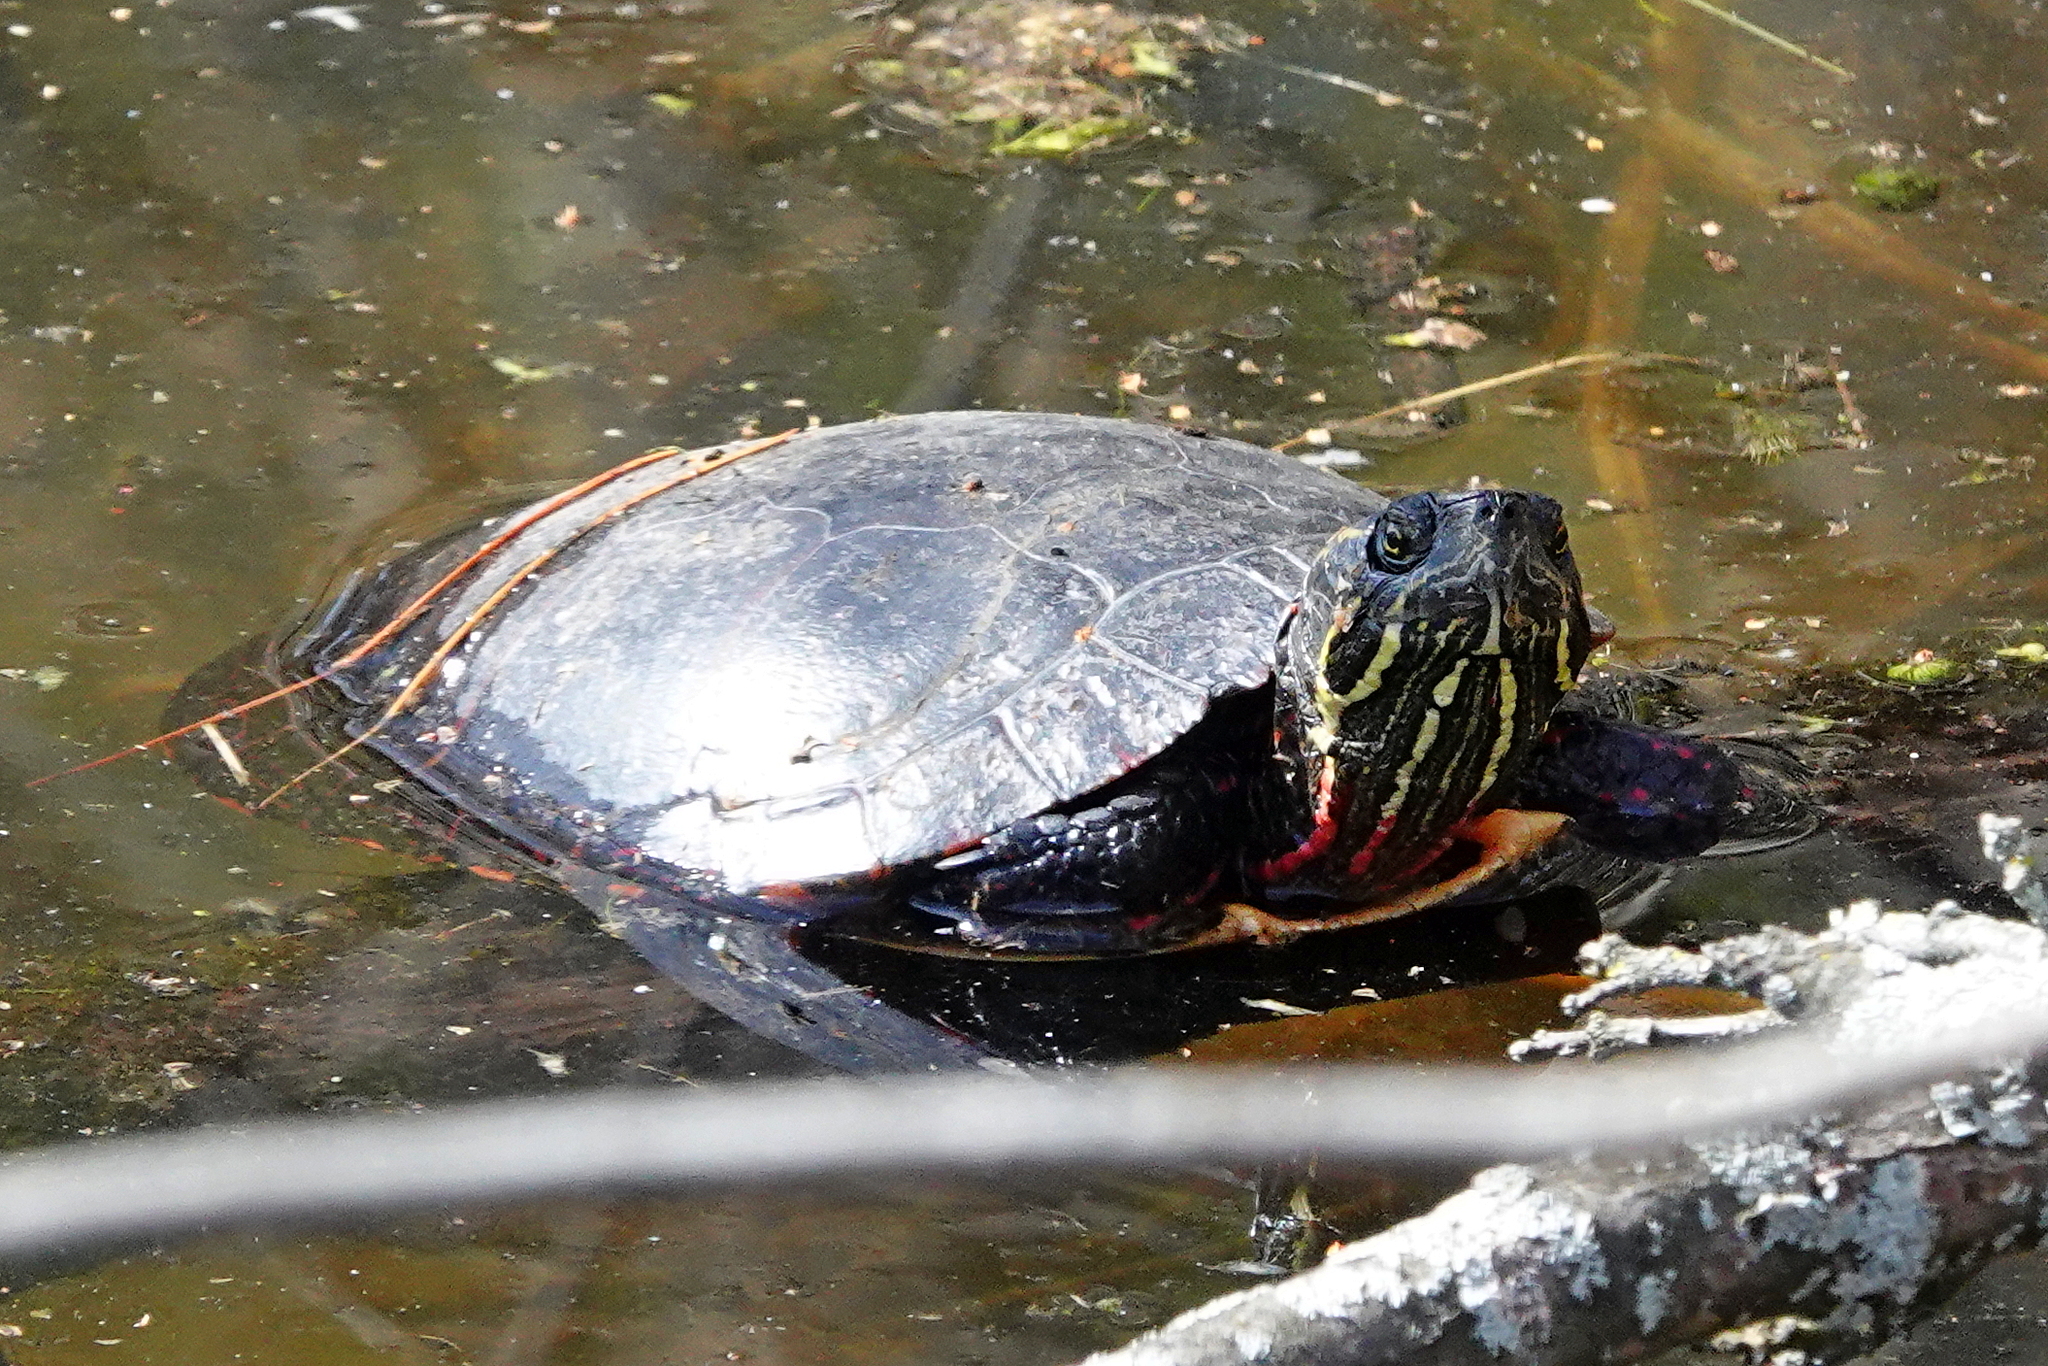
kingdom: Animalia
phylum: Chordata
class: Testudines
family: Emydidae
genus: Chrysemys
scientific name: Chrysemys picta
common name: Painted turtle
